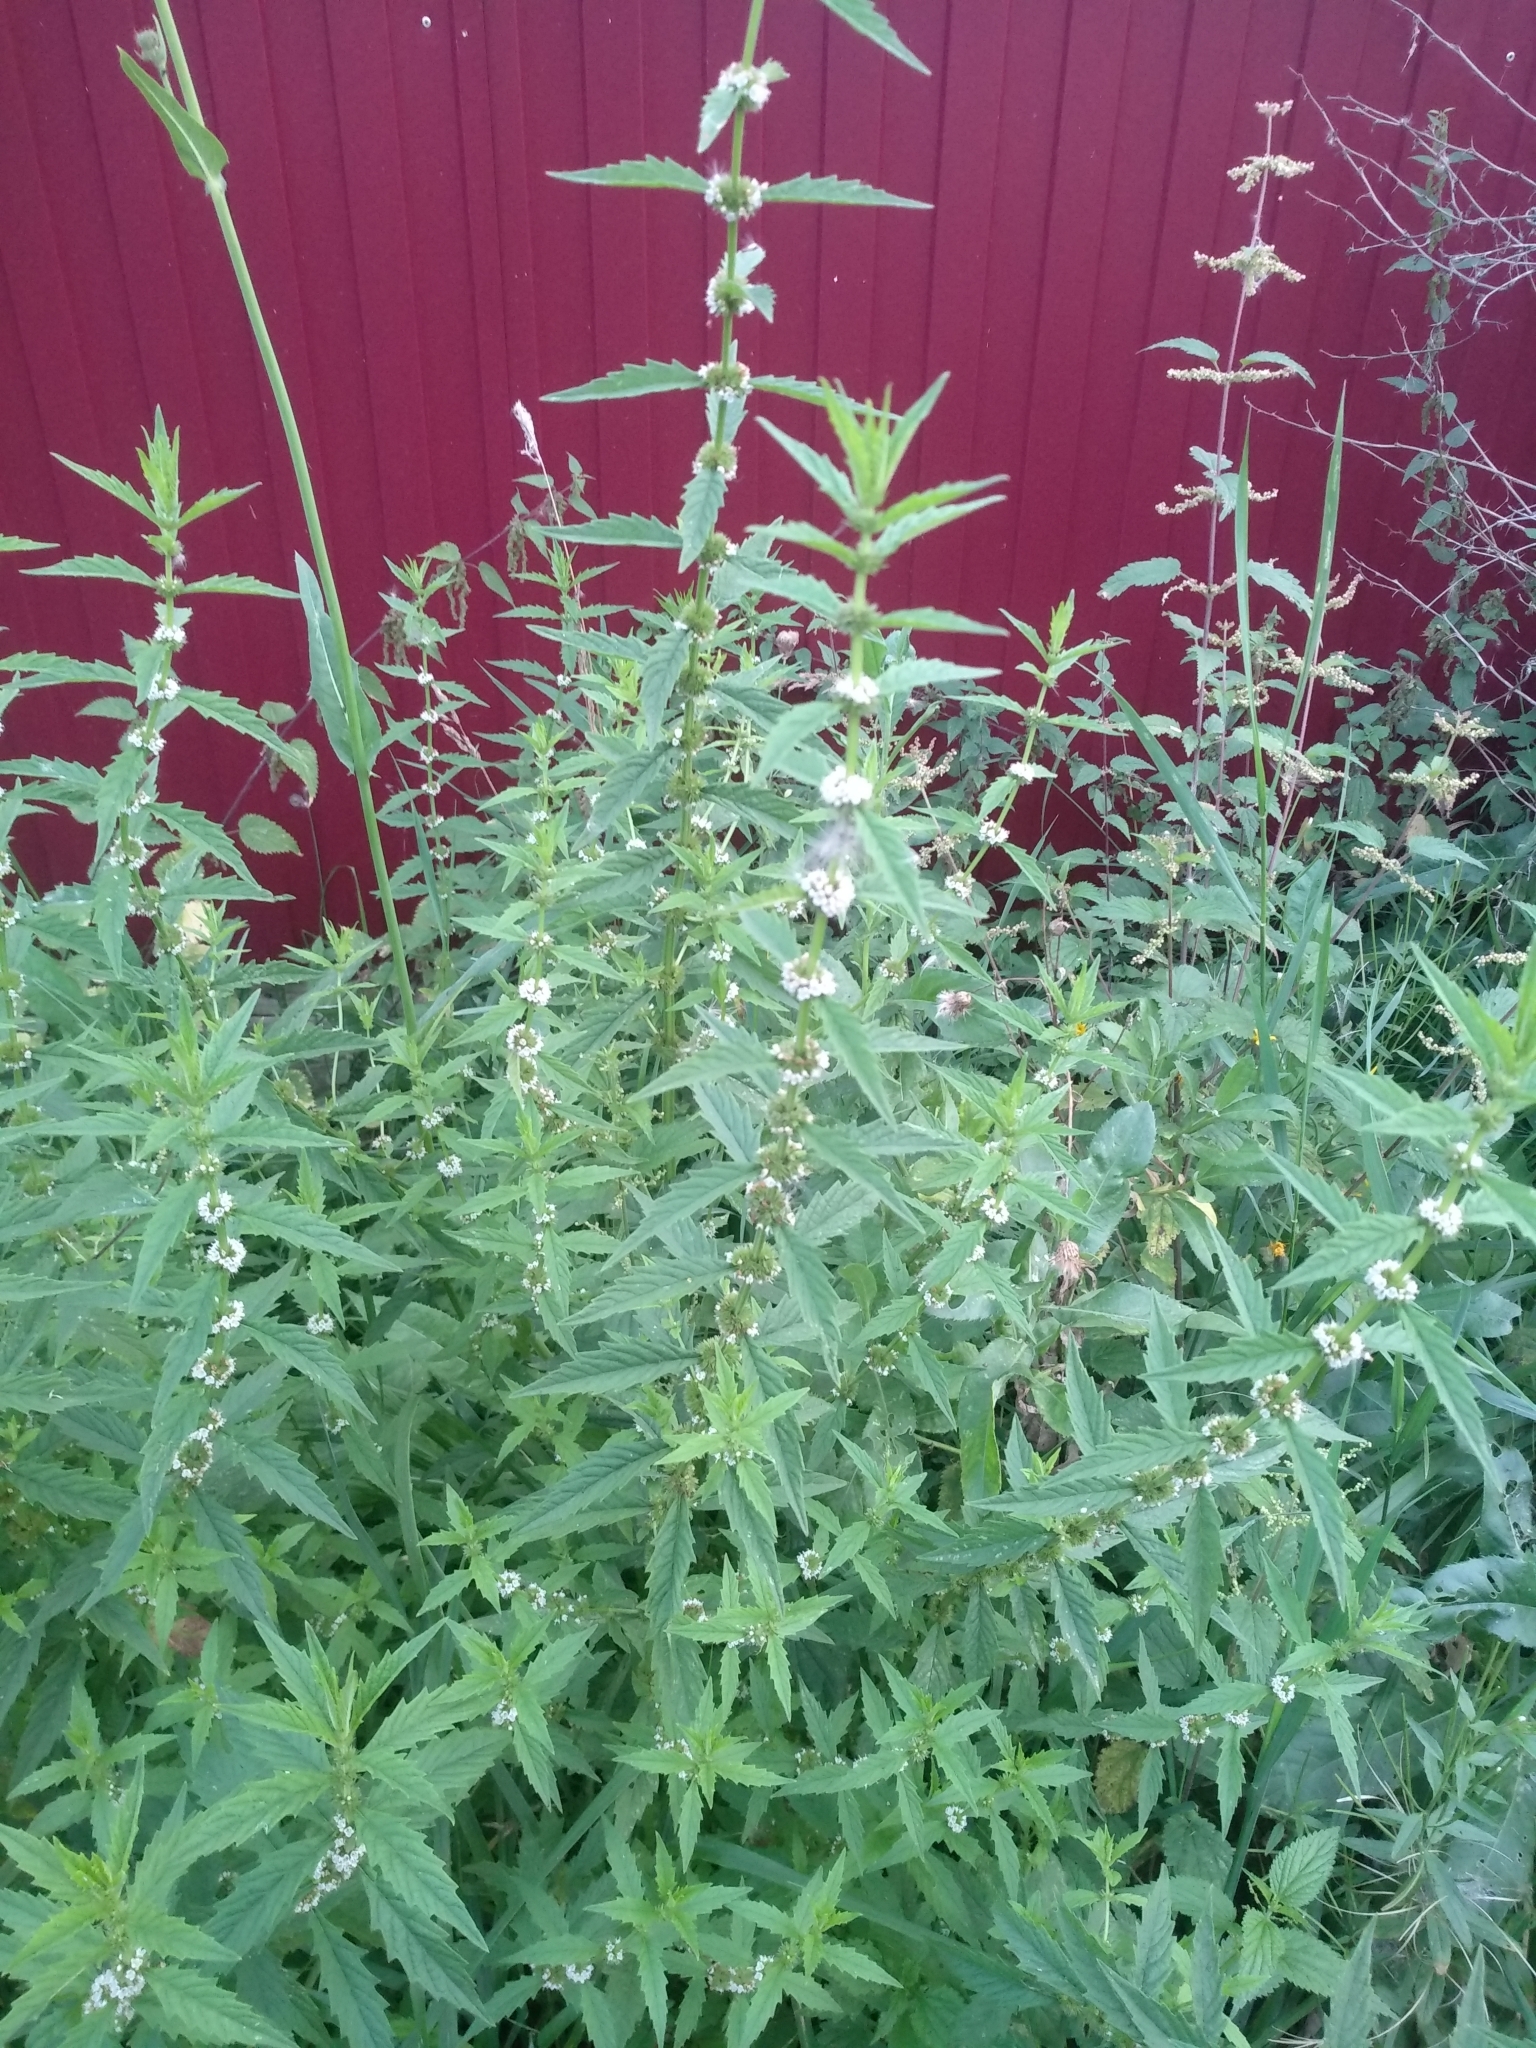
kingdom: Plantae
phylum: Tracheophyta
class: Magnoliopsida
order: Lamiales
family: Lamiaceae
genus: Lycopus
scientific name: Lycopus europaeus
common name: European bugleweed
